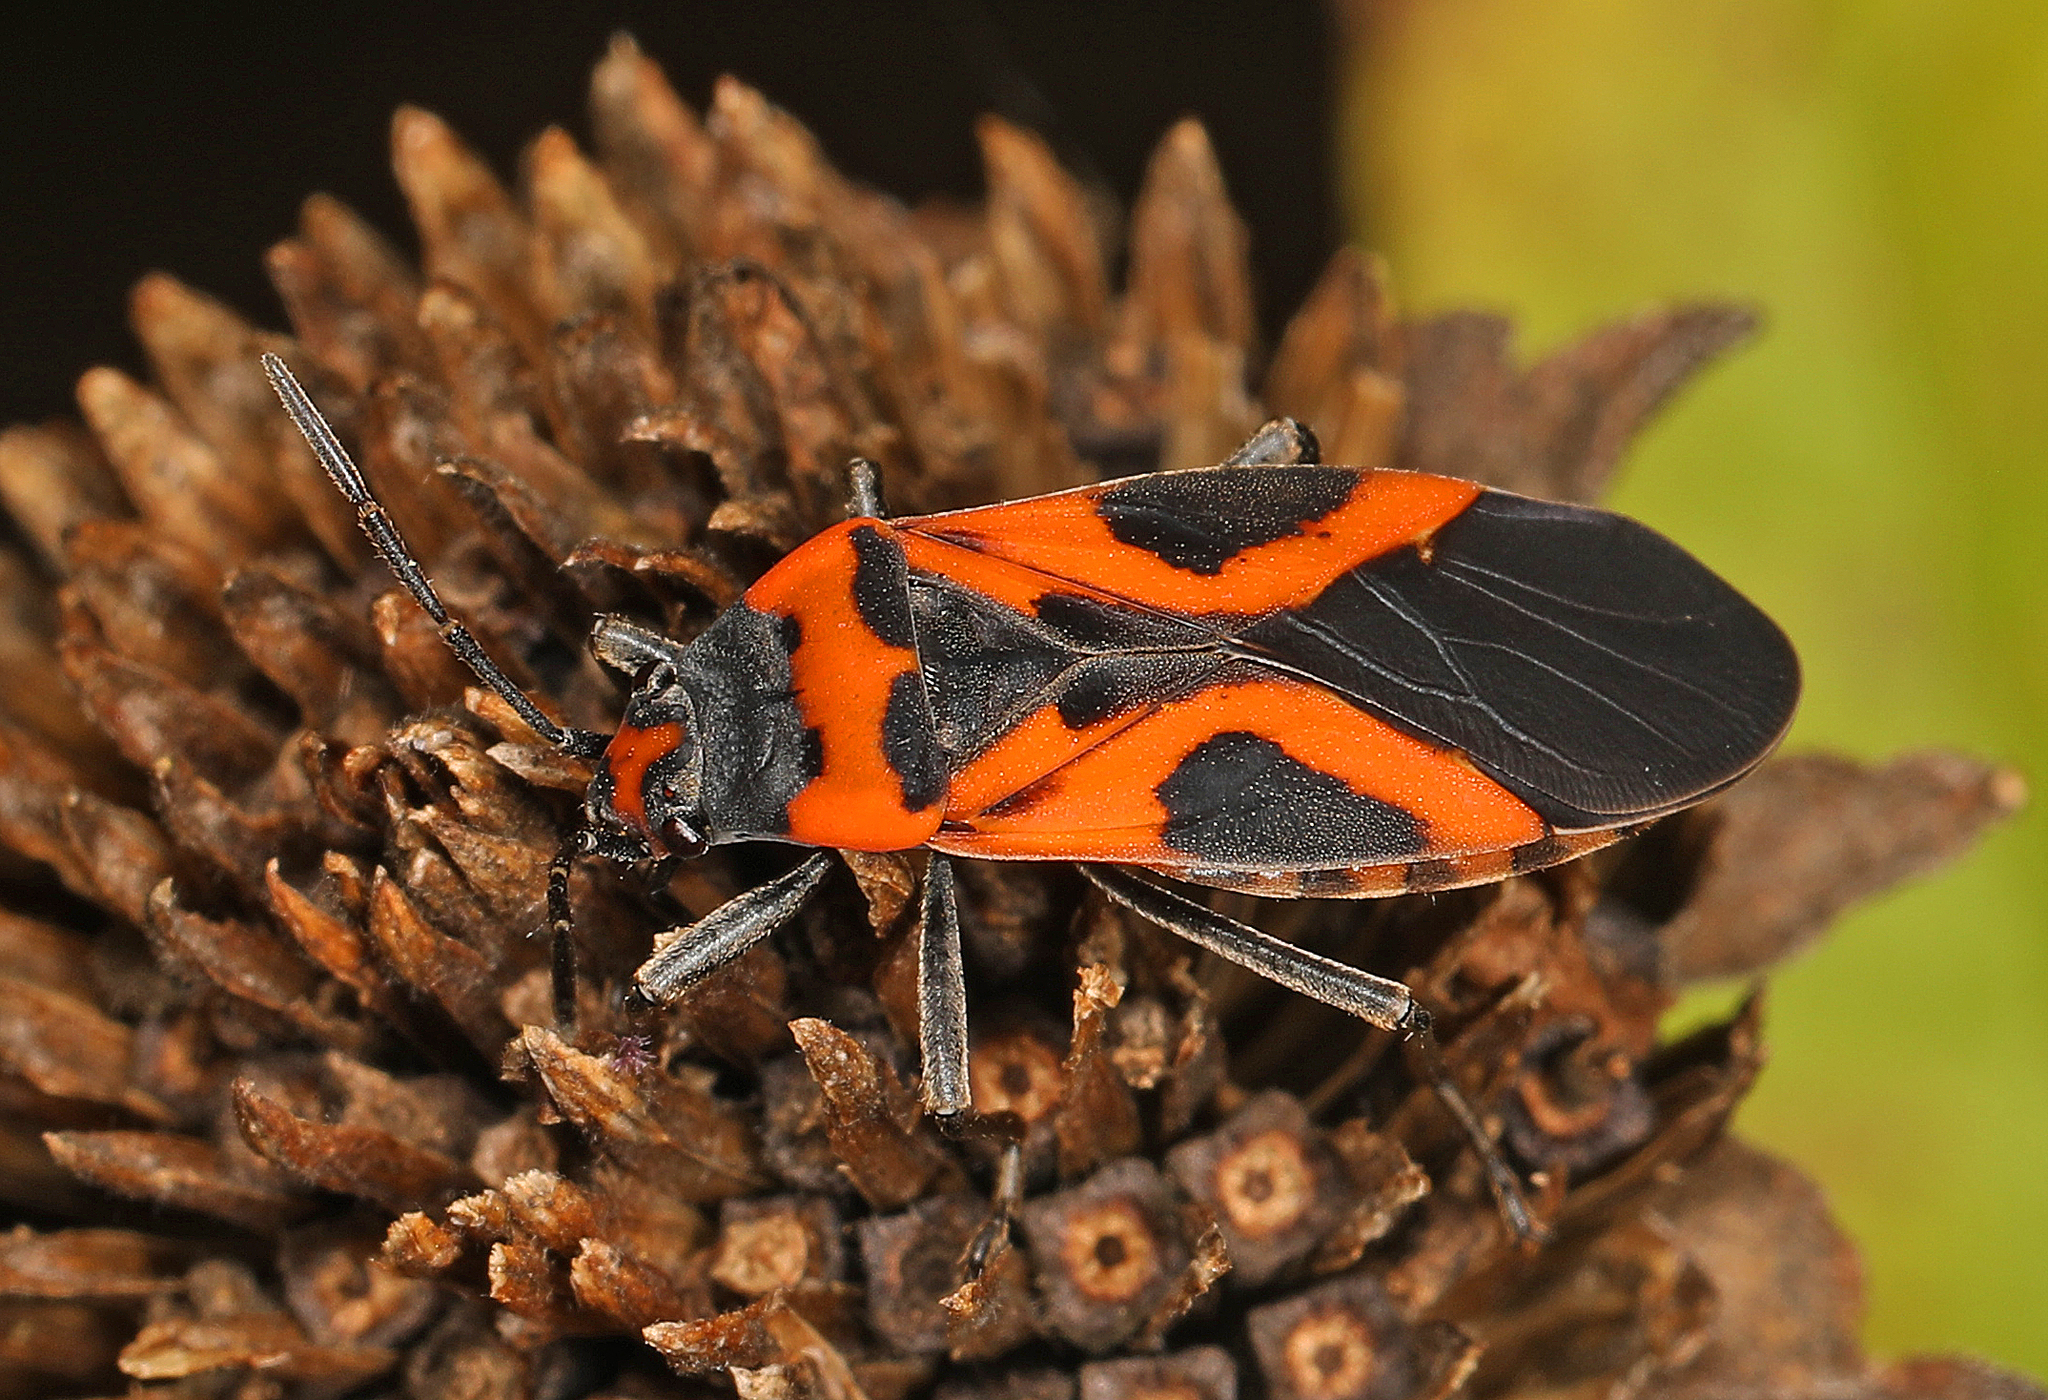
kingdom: Animalia
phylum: Arthropoda
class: Insecta
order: Hemiptera
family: Lygaeidae
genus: Lygaeus
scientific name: Lygaeus turcicus
